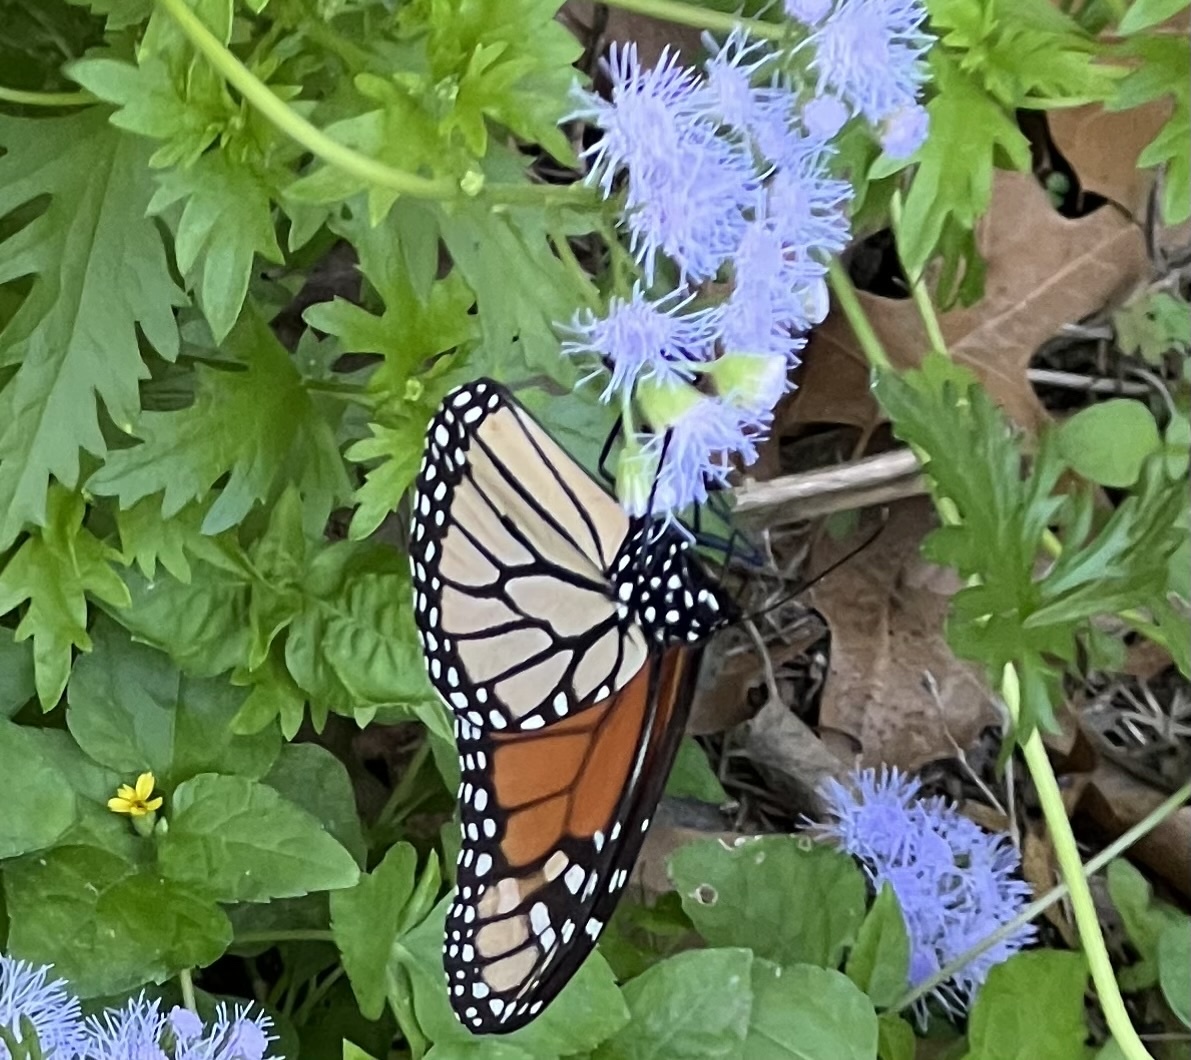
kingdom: Animalia
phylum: Arthropoda
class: Insecta
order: Lepidoptera
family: Nymphalidae
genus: Danaus
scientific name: Danaus plexippus
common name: Monarch
